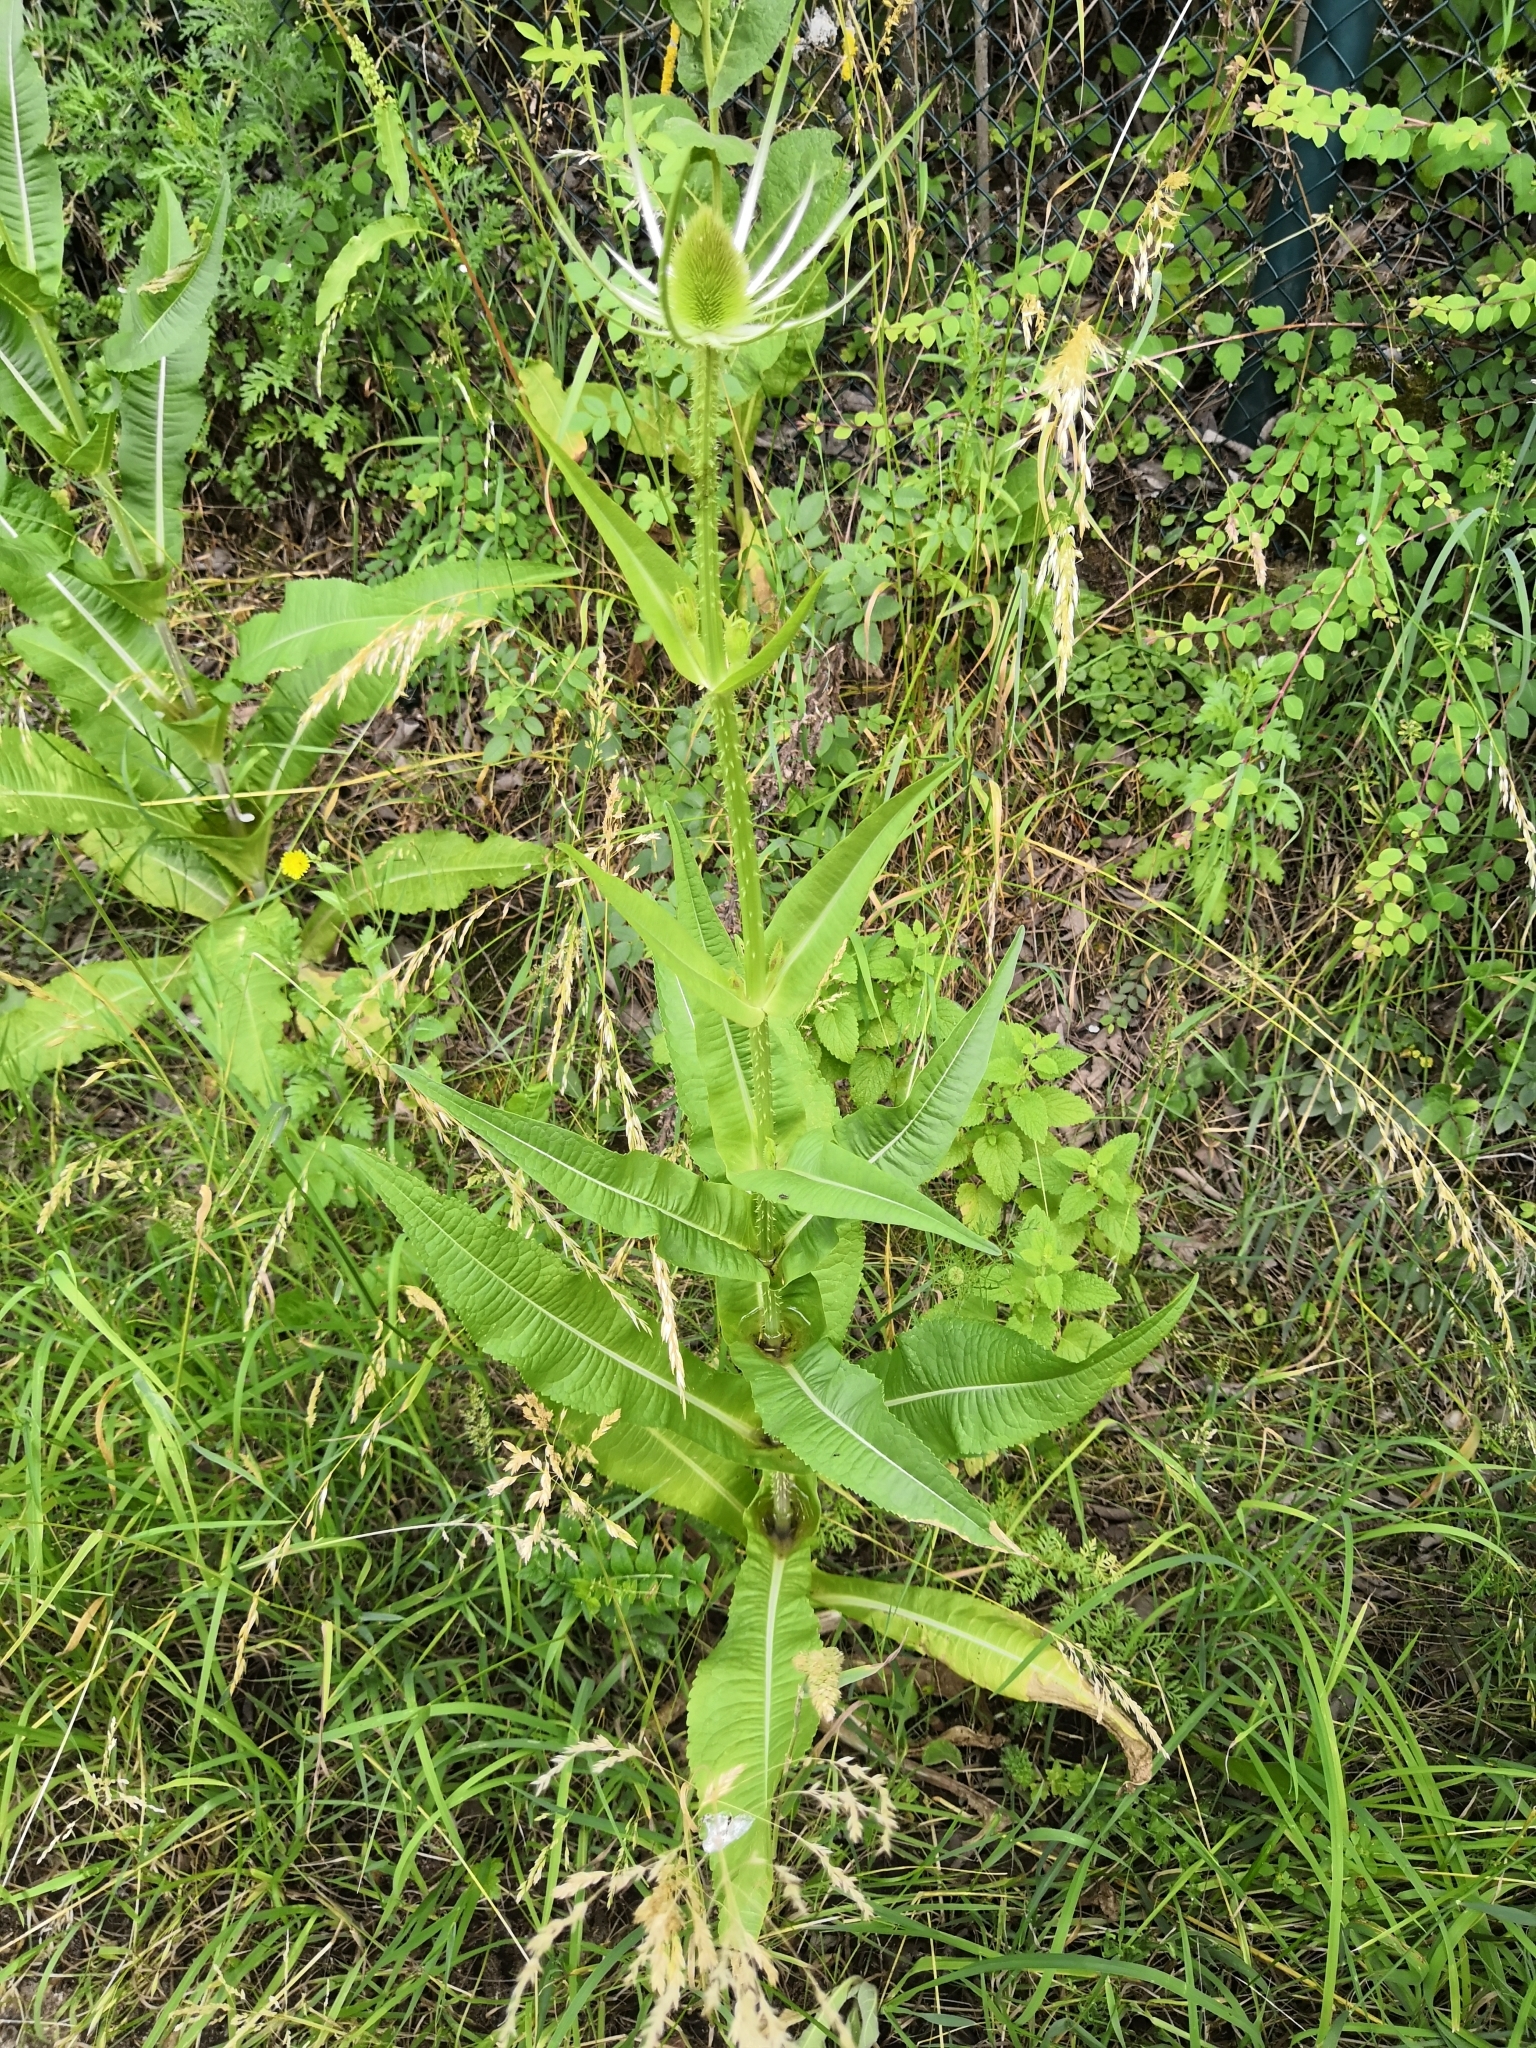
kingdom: Plantae
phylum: Tracheophyta
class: Magnoliopsida
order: Dipsacales
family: Caprifoliaceae
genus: Dipsacus
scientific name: Dipsacus fullonum
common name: Teasel
